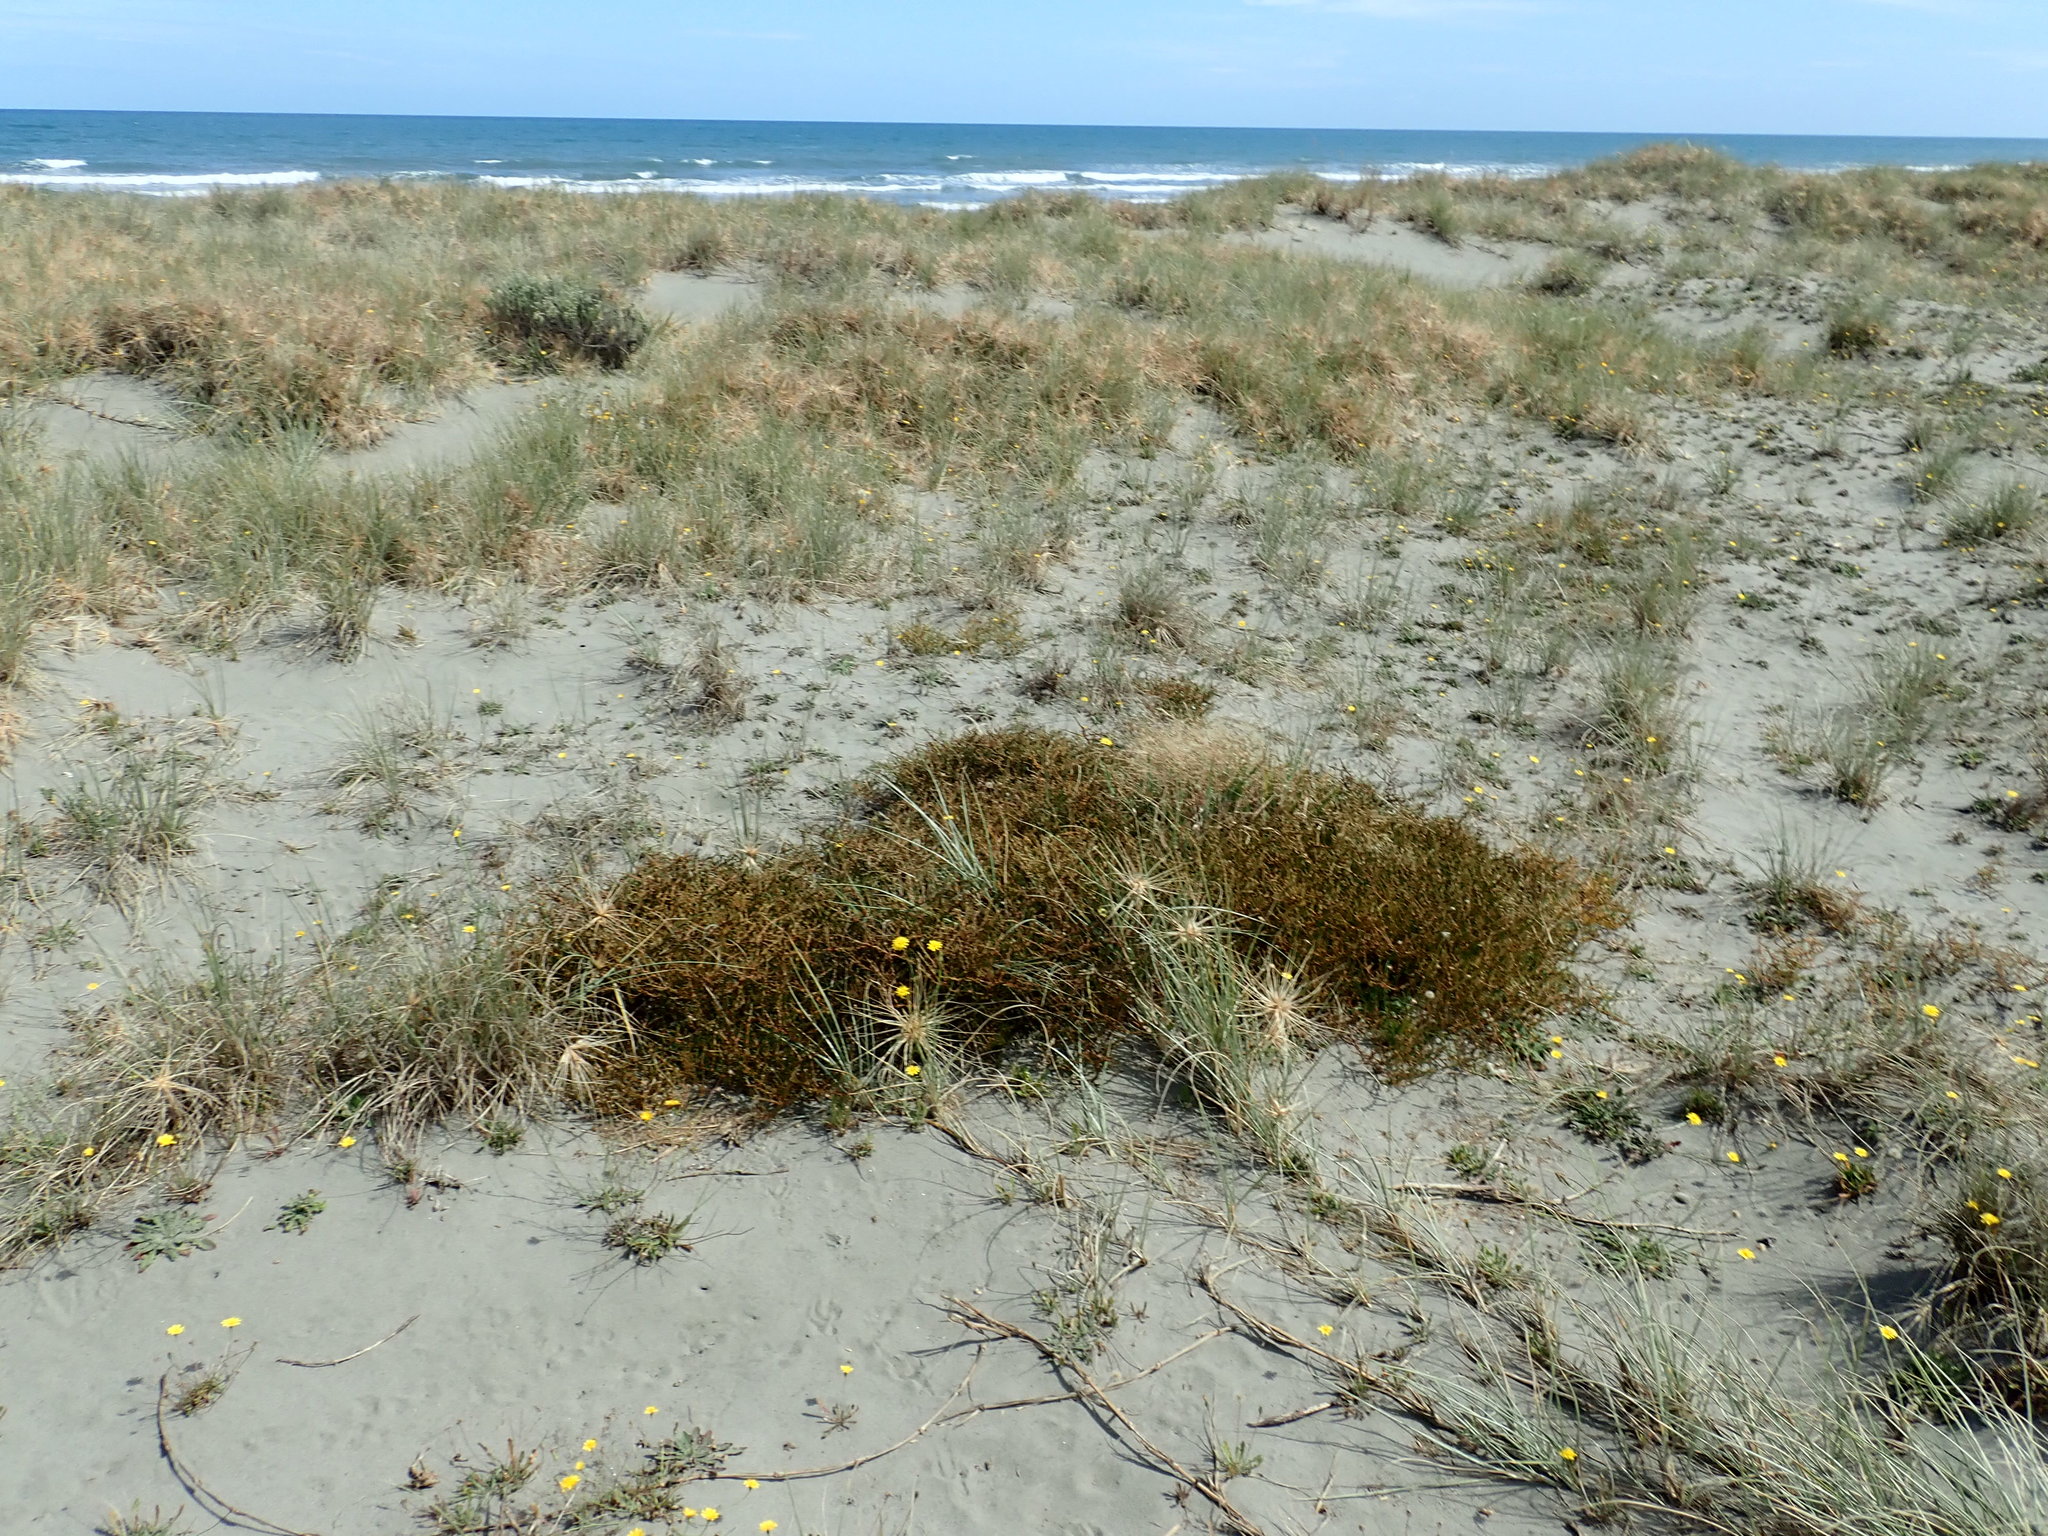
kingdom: Plantae
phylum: Tracheophyta
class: Magnoliopsida
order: Gentianales
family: Rubiaceae
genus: Coprosma
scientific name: Coprosma acerosa
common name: Sand coprosma
